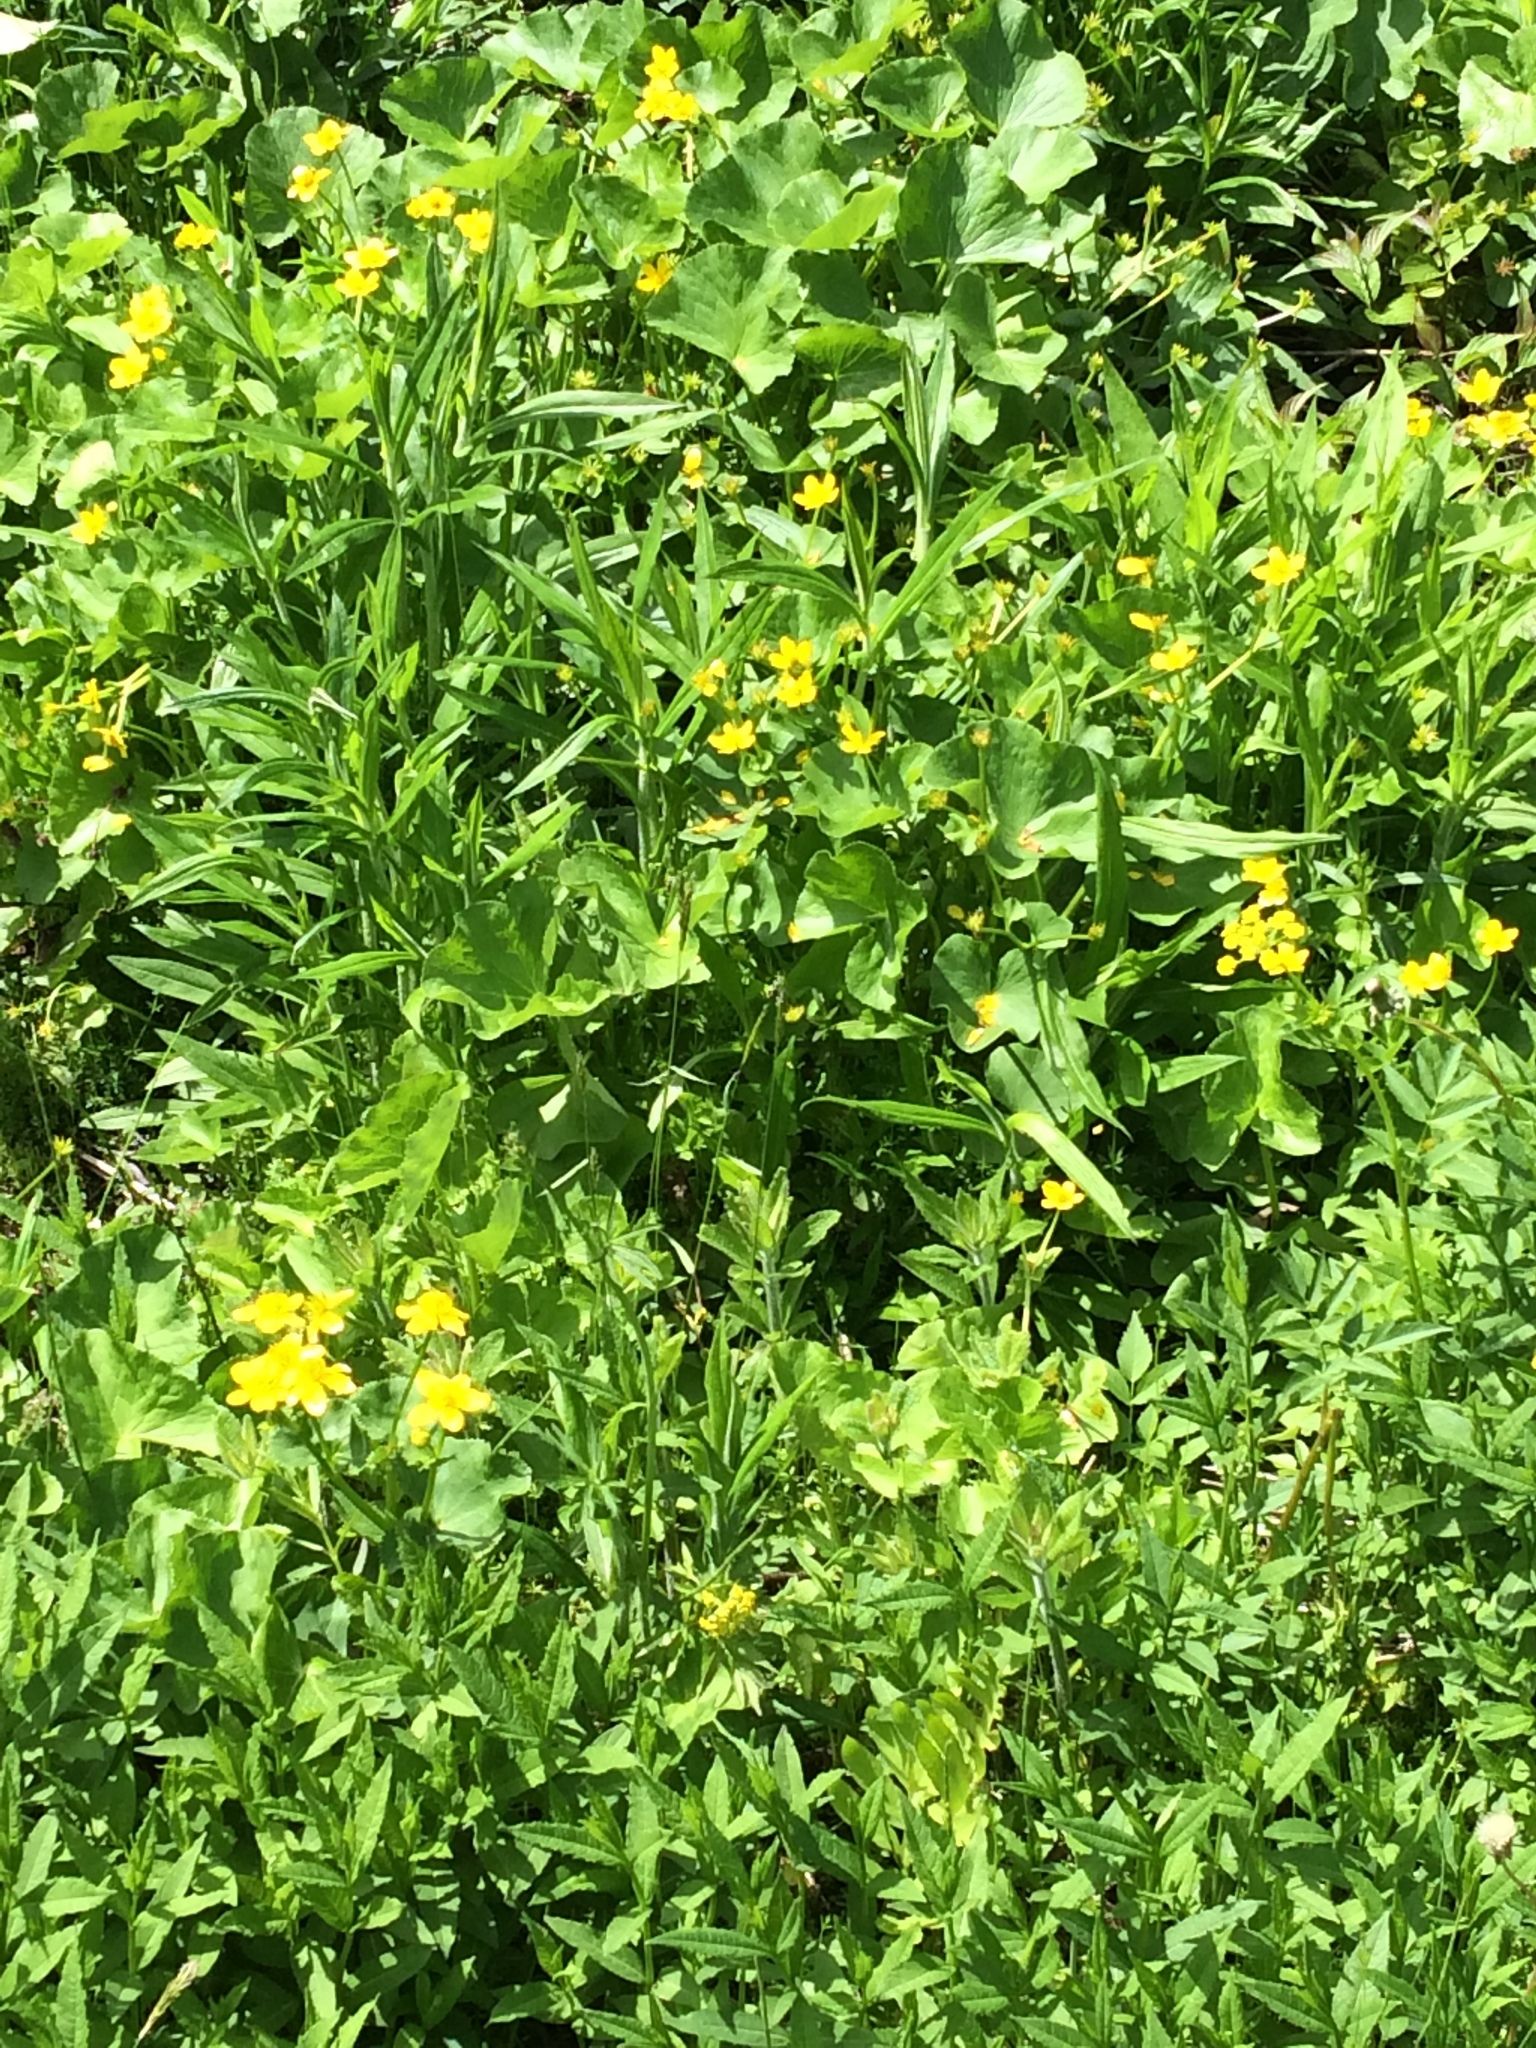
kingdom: Plantae
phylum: Tracheophyta
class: Magnoliopsida
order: Ranunculales
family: Ranunculaceae
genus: Caltha
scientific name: Caltha palustris
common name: Marsh marigold
